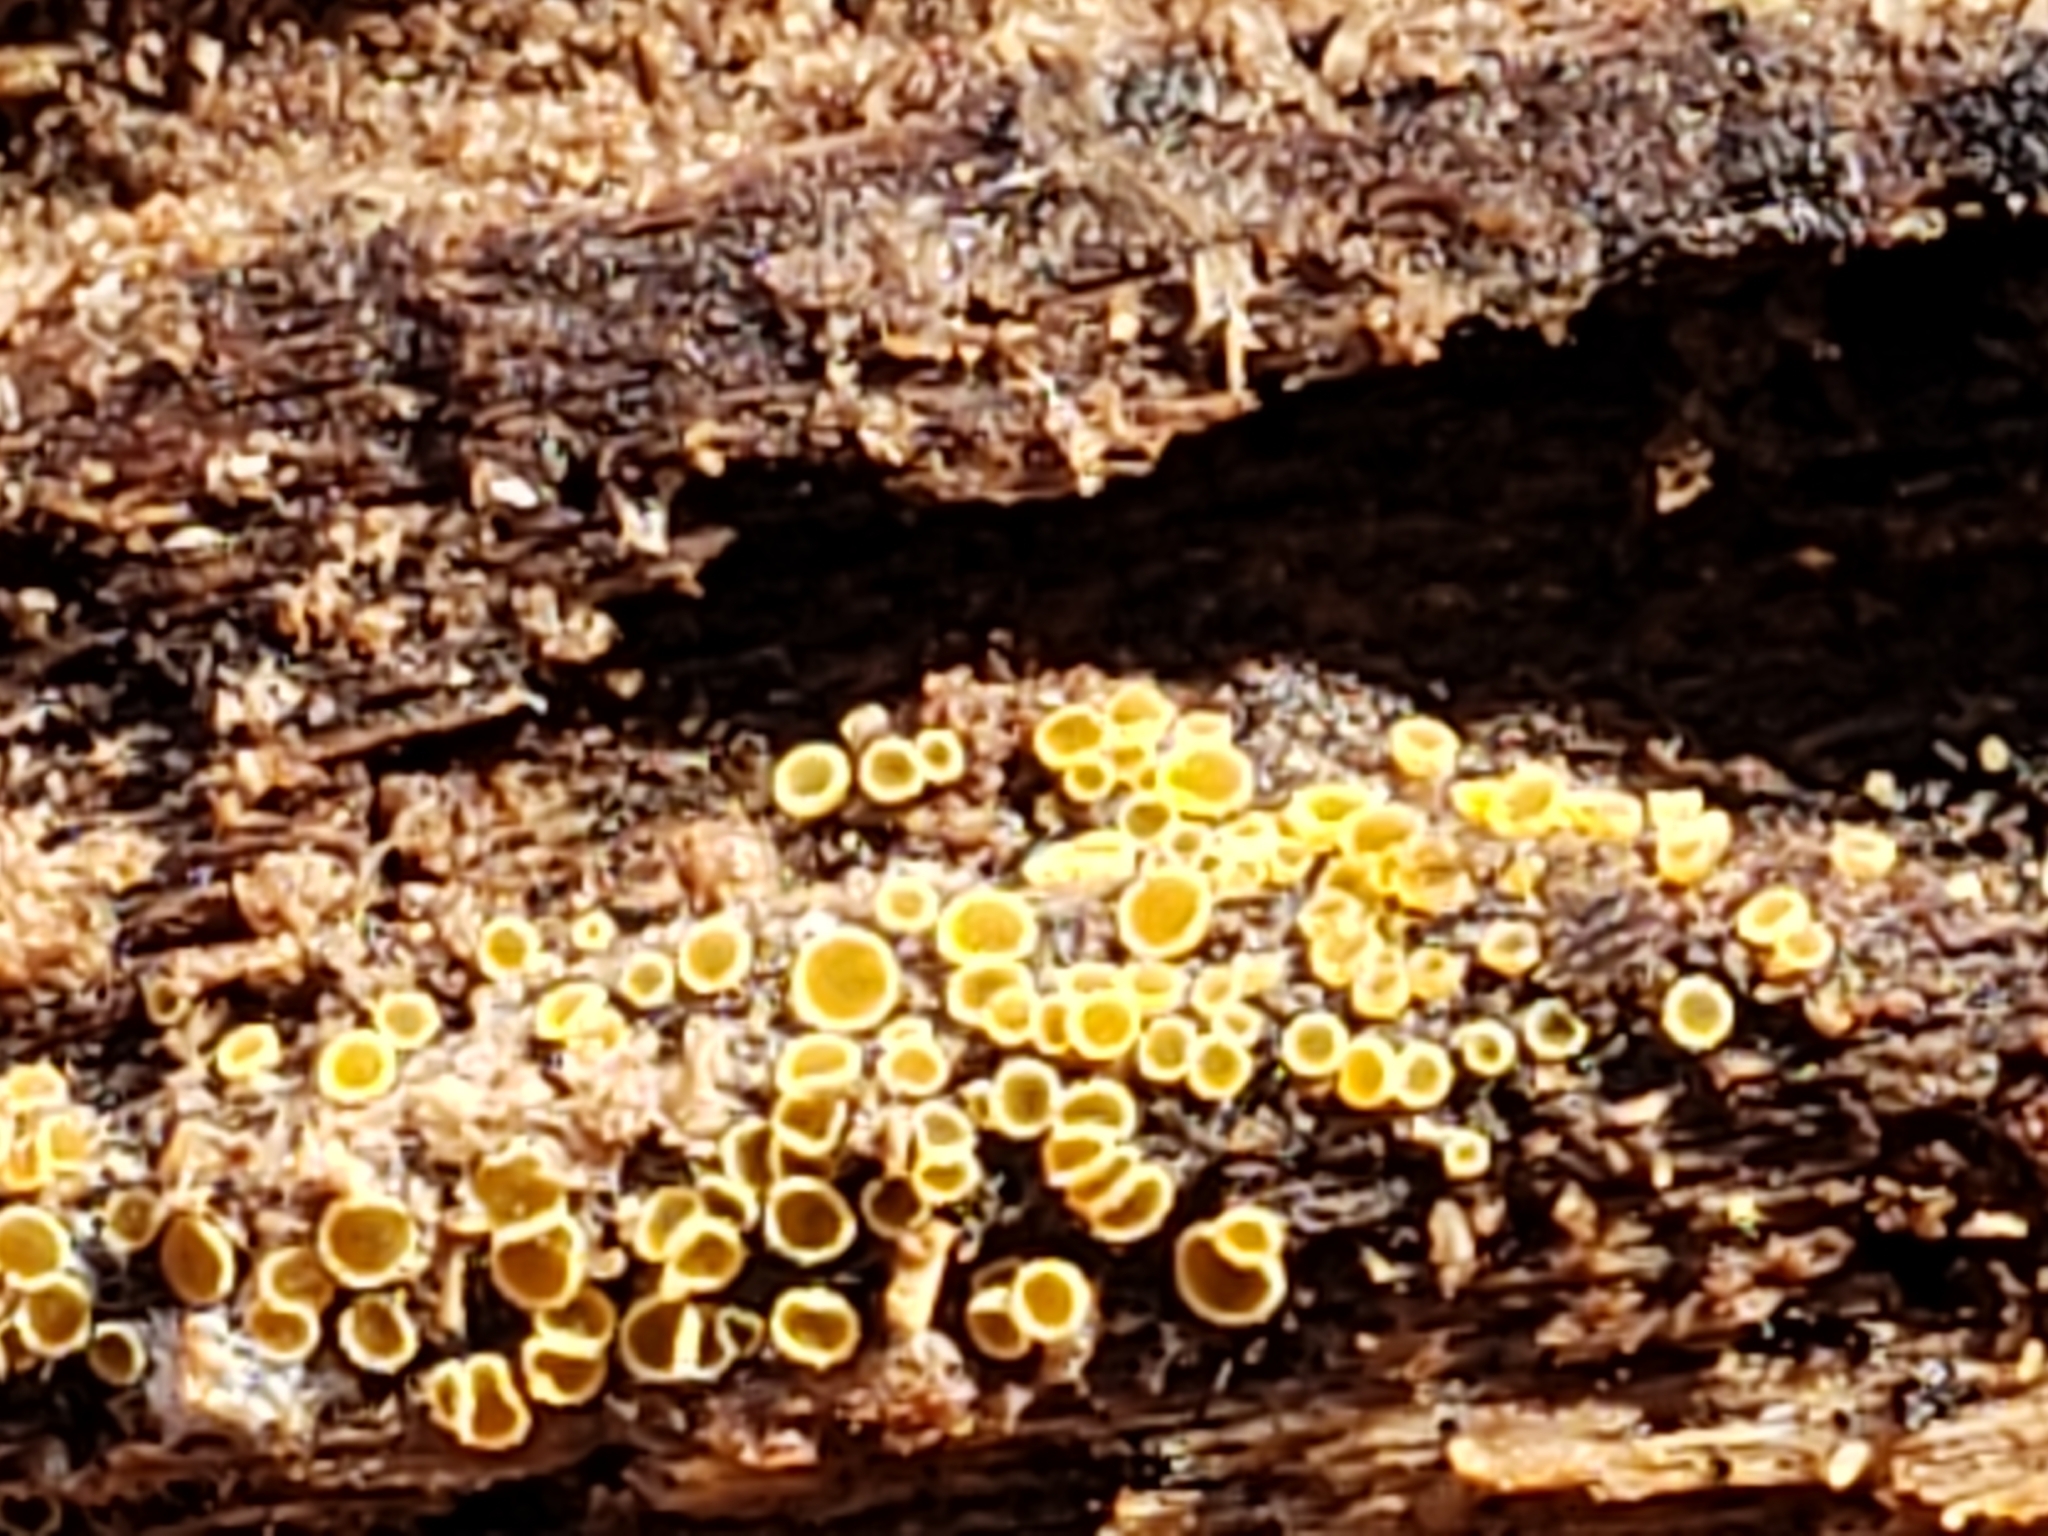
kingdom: Fungi
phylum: Ascomycota
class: Leotiomycetes
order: Helotiales
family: Arachnopezizaceae
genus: Arachnopeziza
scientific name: Arachnopeziza trabinelloides
